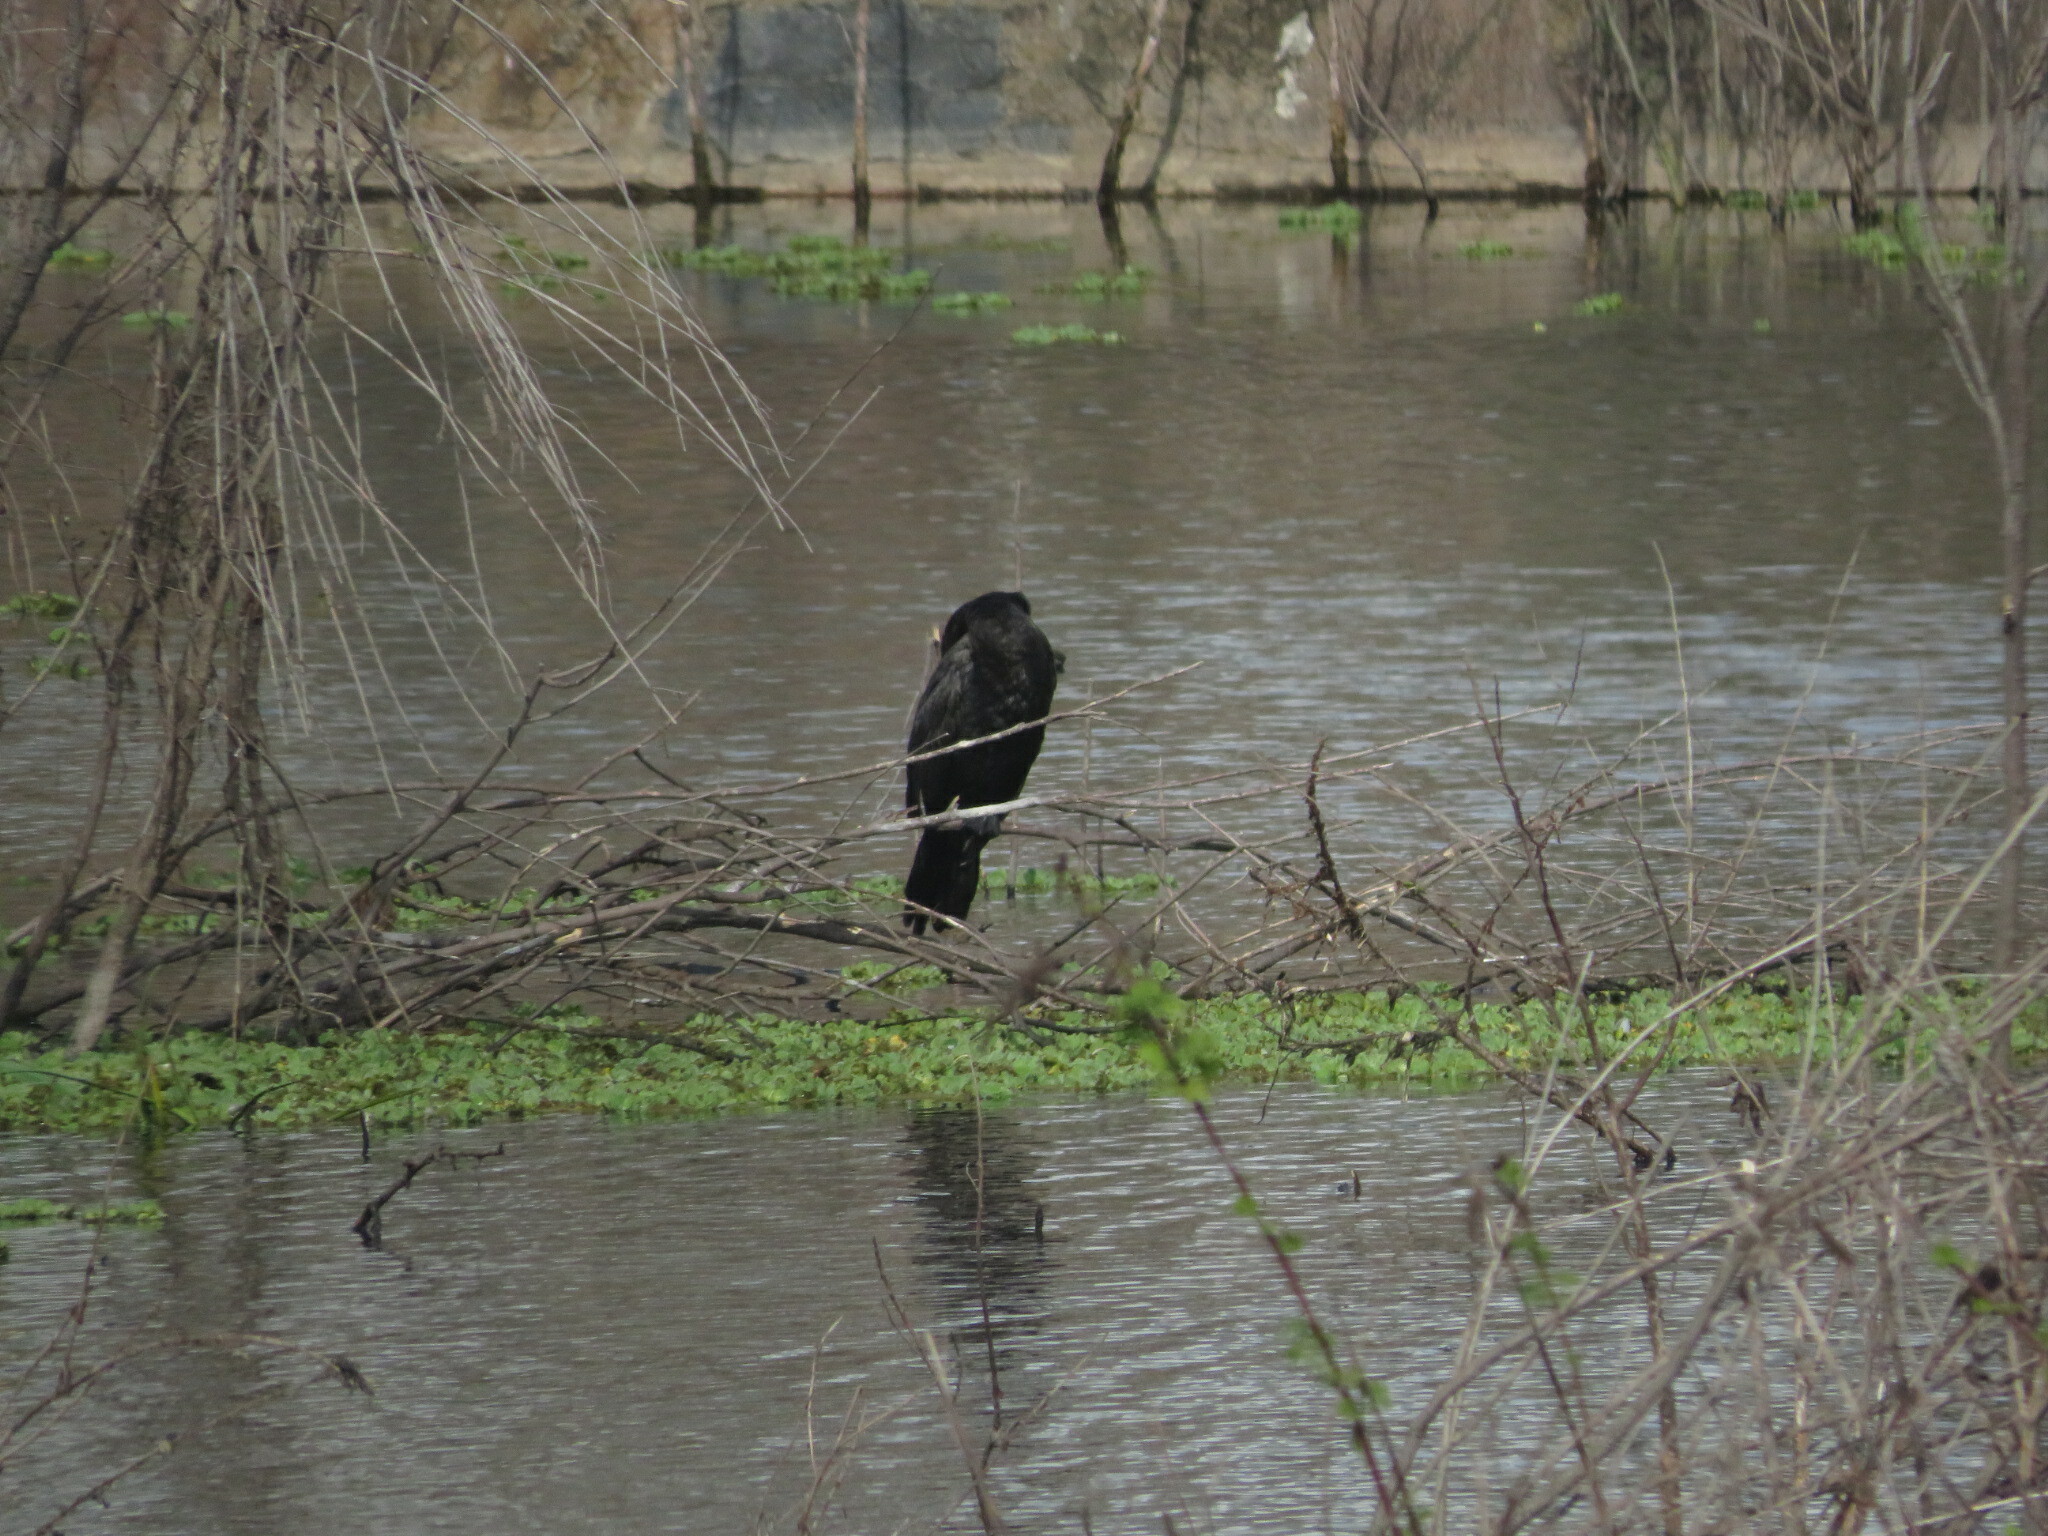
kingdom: Animalia
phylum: Chordata
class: Aves
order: Suliformes
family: Phalacrocoracidae
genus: Phalacrocorax
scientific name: Phalacrocorax brasilianus
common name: Neotropic cormorant
